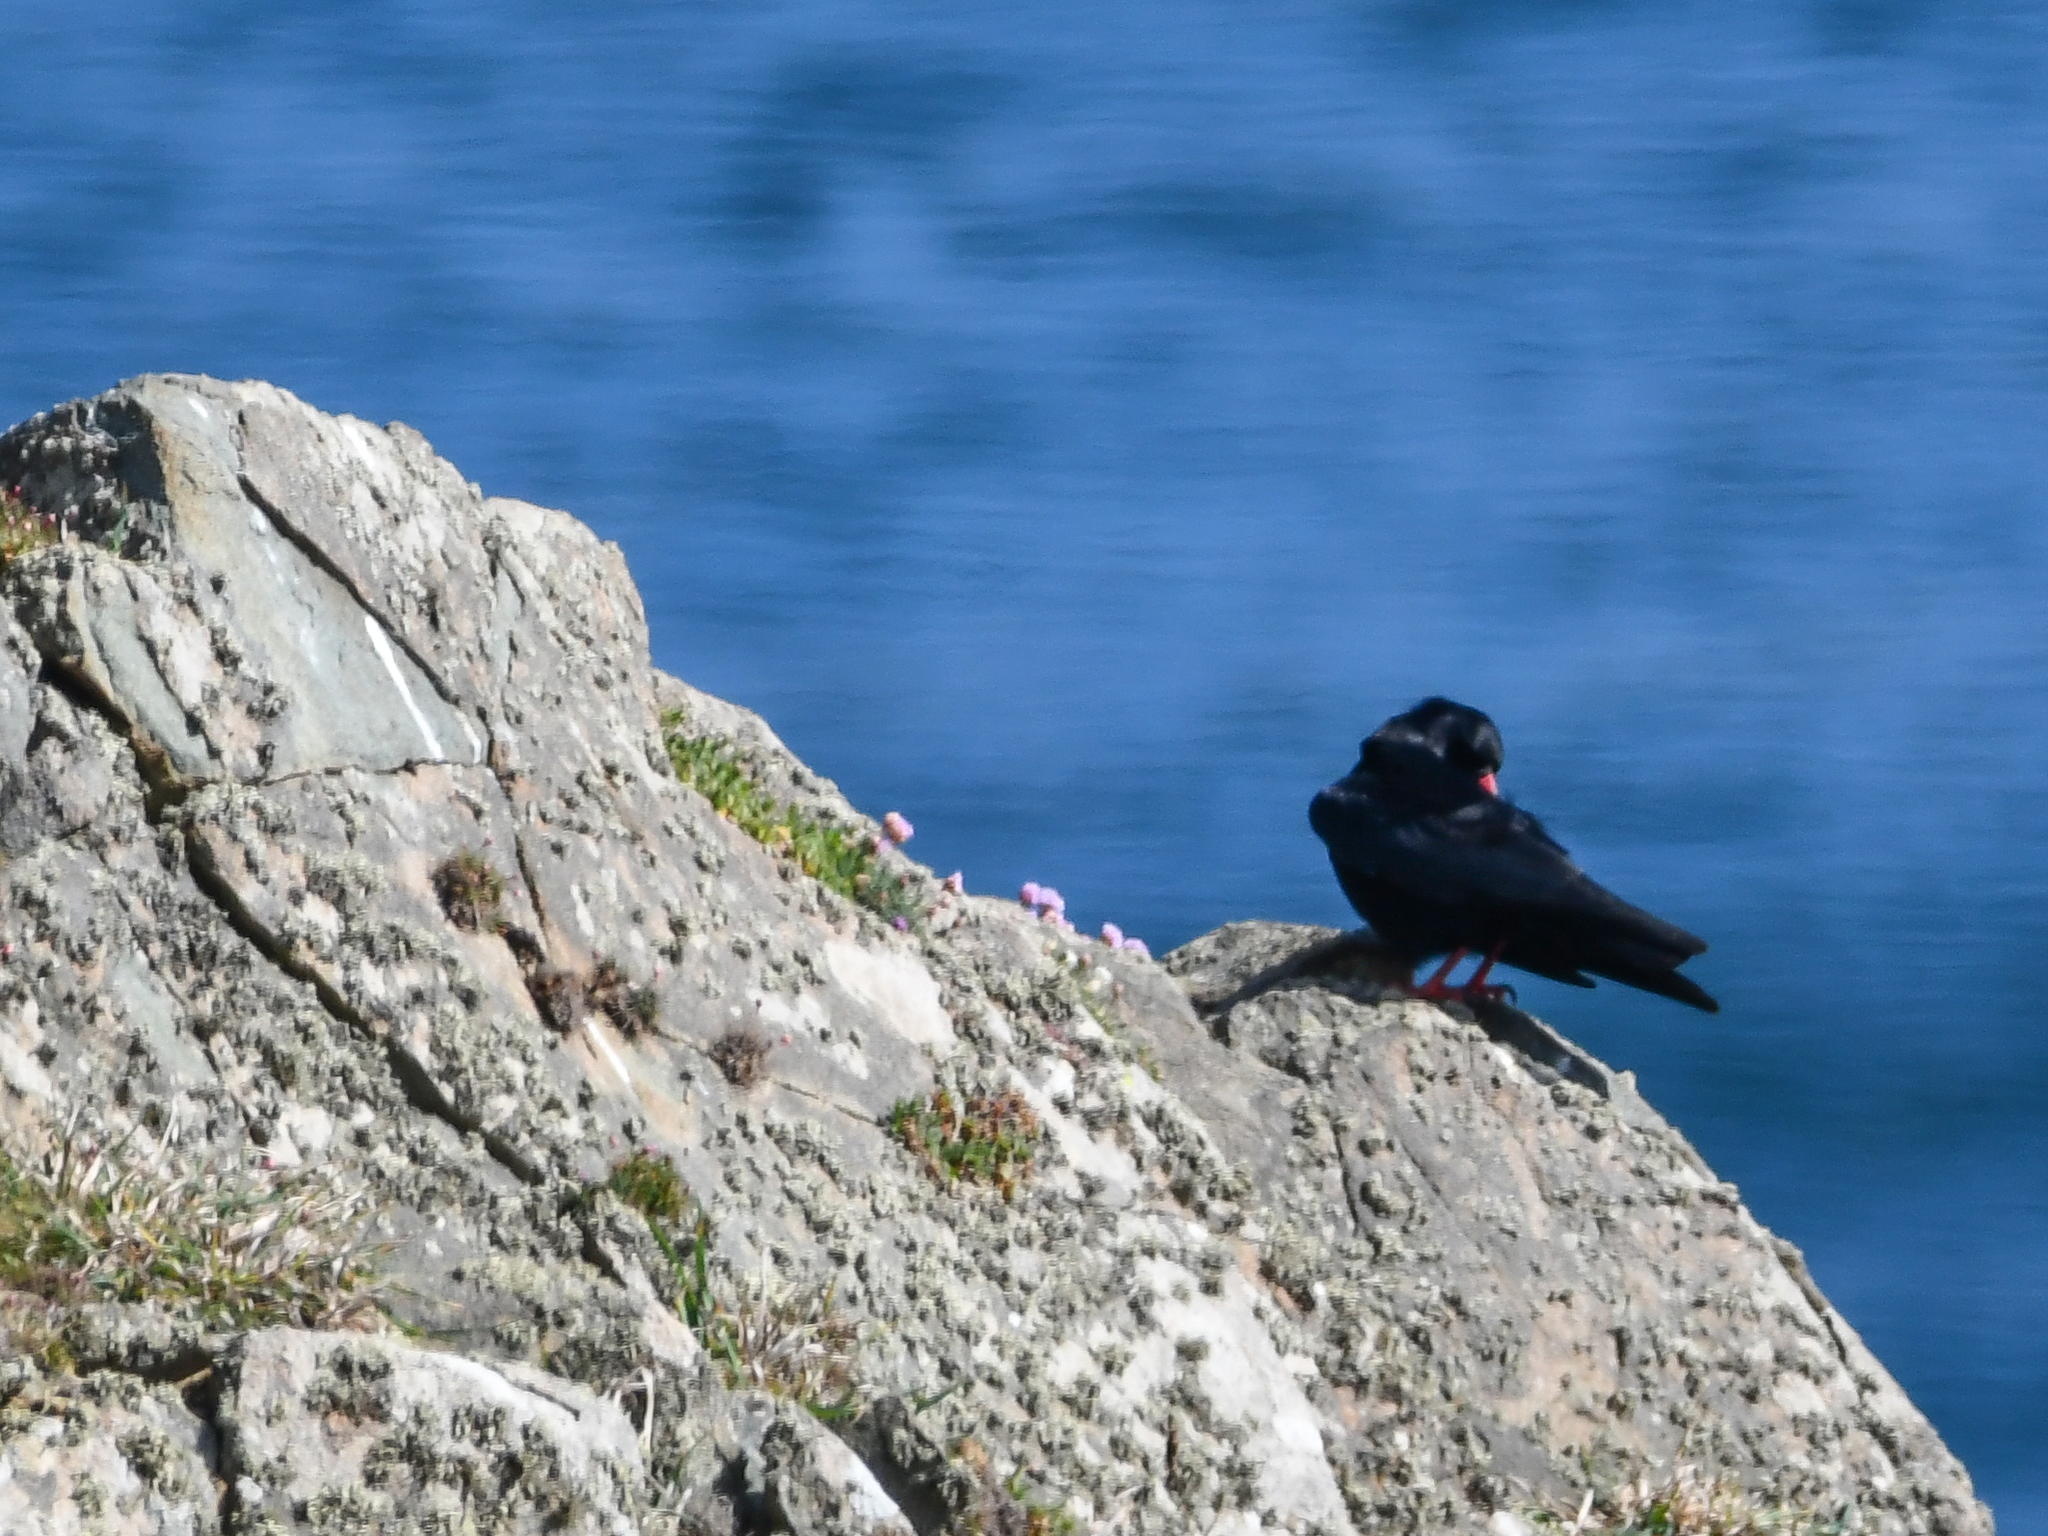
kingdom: Animalia
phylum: Chordata
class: Aves
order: Passeriformes
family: Corvidae
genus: Pyrrhocorax
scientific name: Pyrrhocorax pyrrhocorax
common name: Red-billed chough
